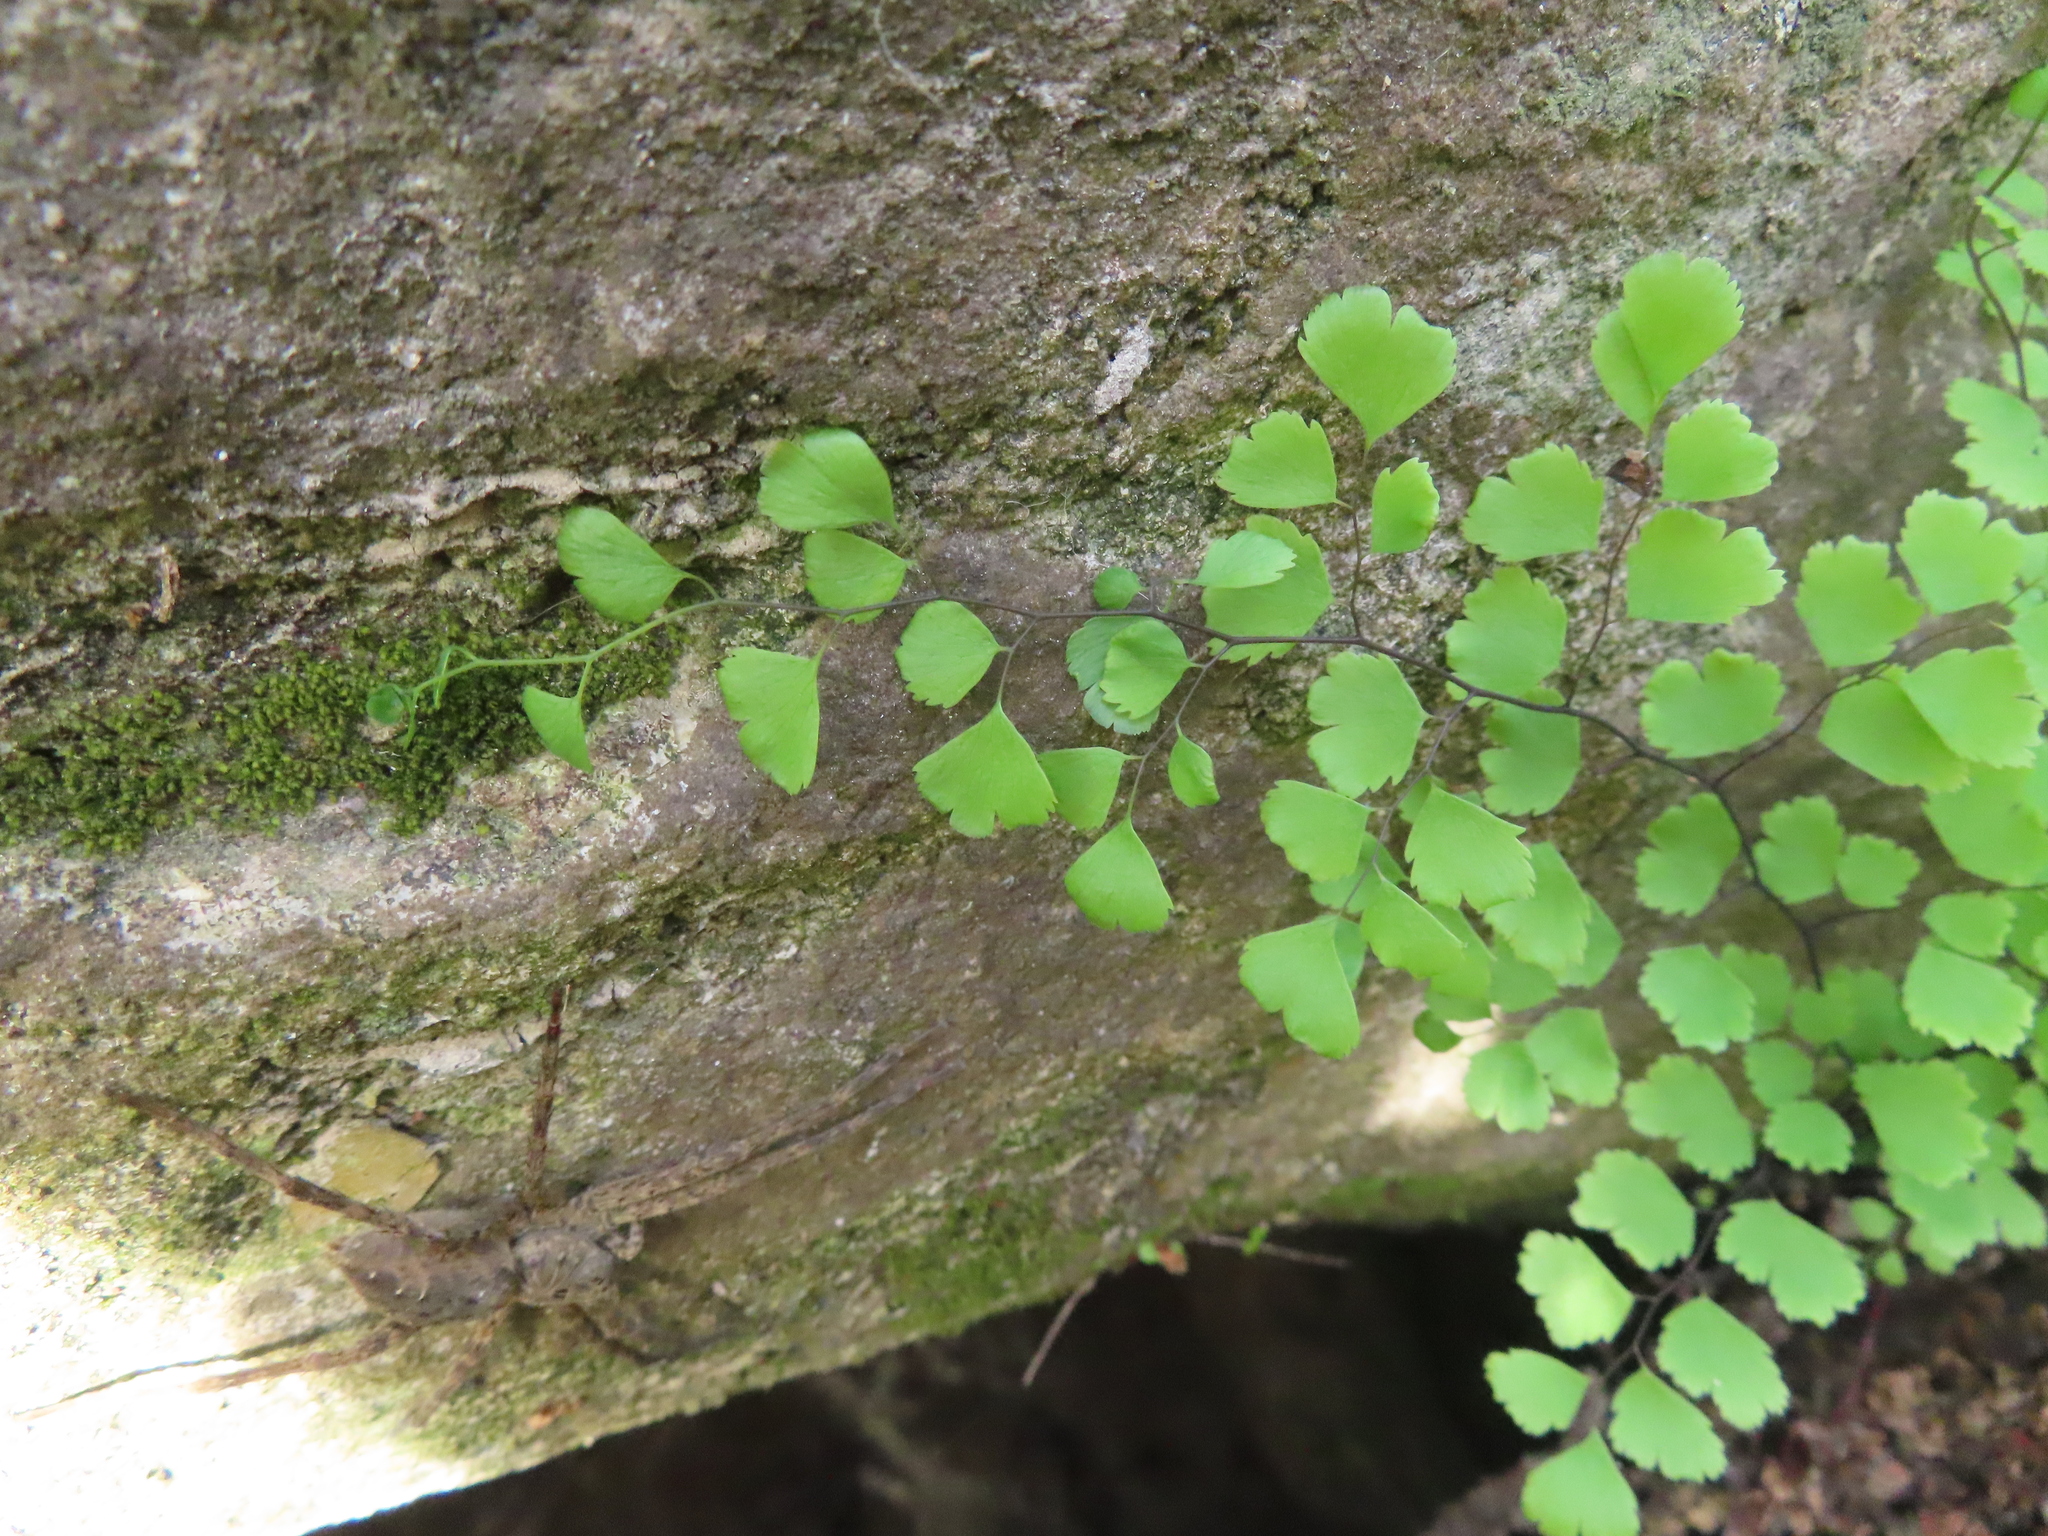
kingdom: Plantae
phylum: Tracheophyta
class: Polypodiopsida
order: Polypodiales
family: Pteridaceae
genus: Adiantum
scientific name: Adiantum capillus-veneris
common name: Maidenhair fern
